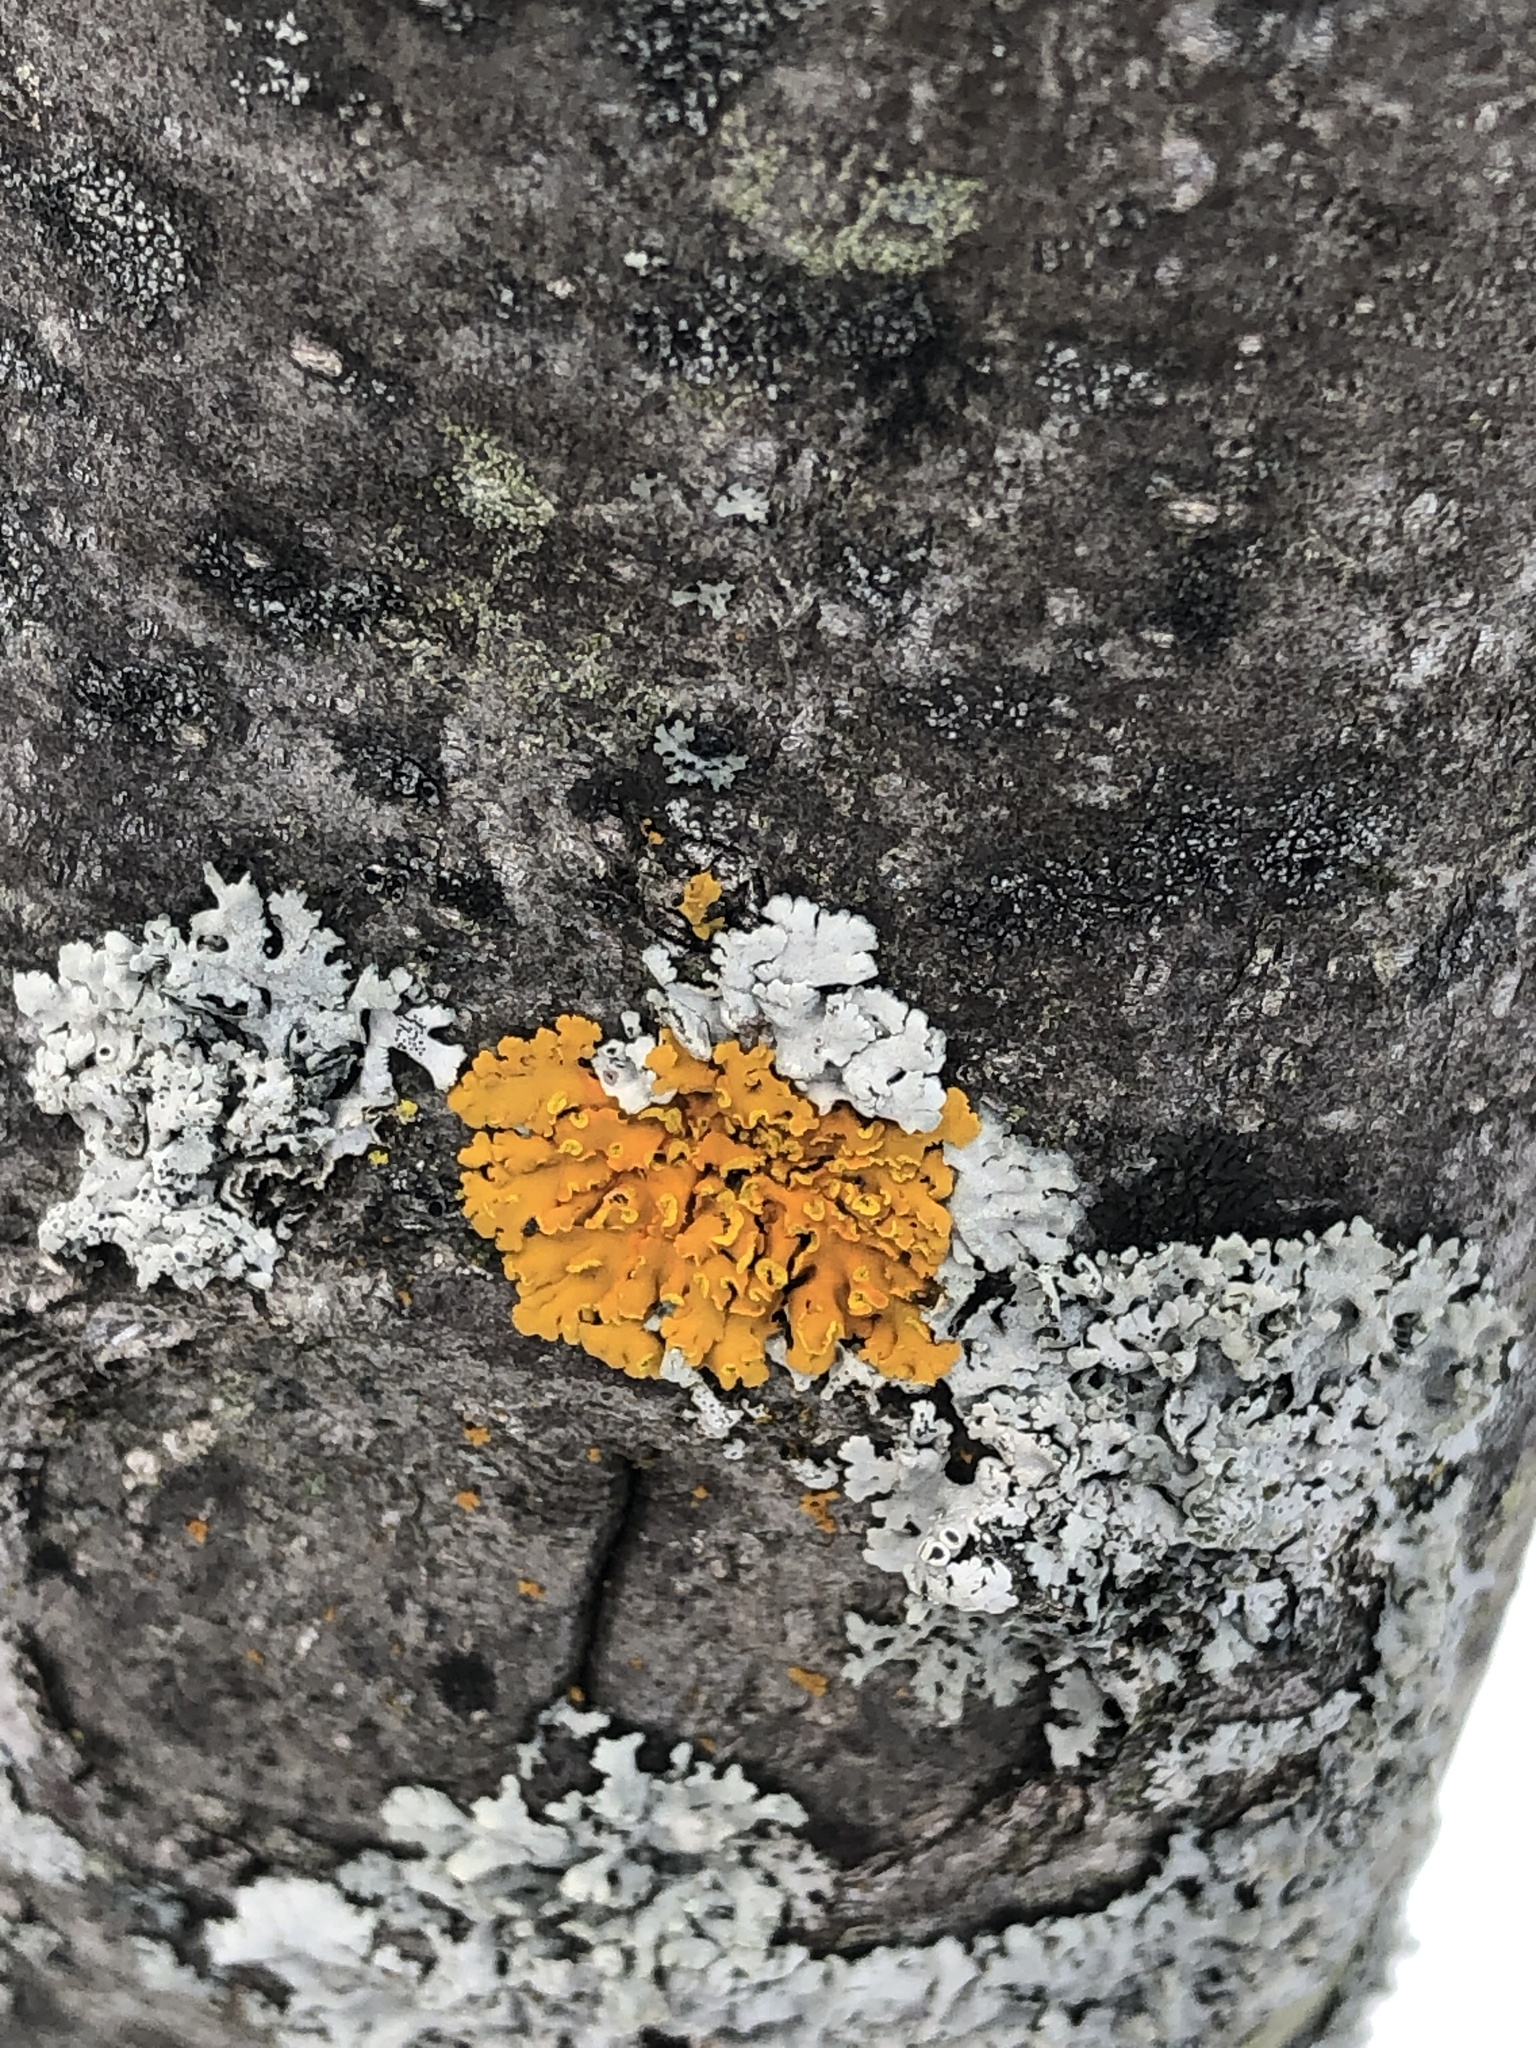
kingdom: Fungi
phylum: Ascomycota
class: Lecanoromycetes
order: Teloschistales
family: Teloschistaceae
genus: Oxneria
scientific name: Oxneria fallax
